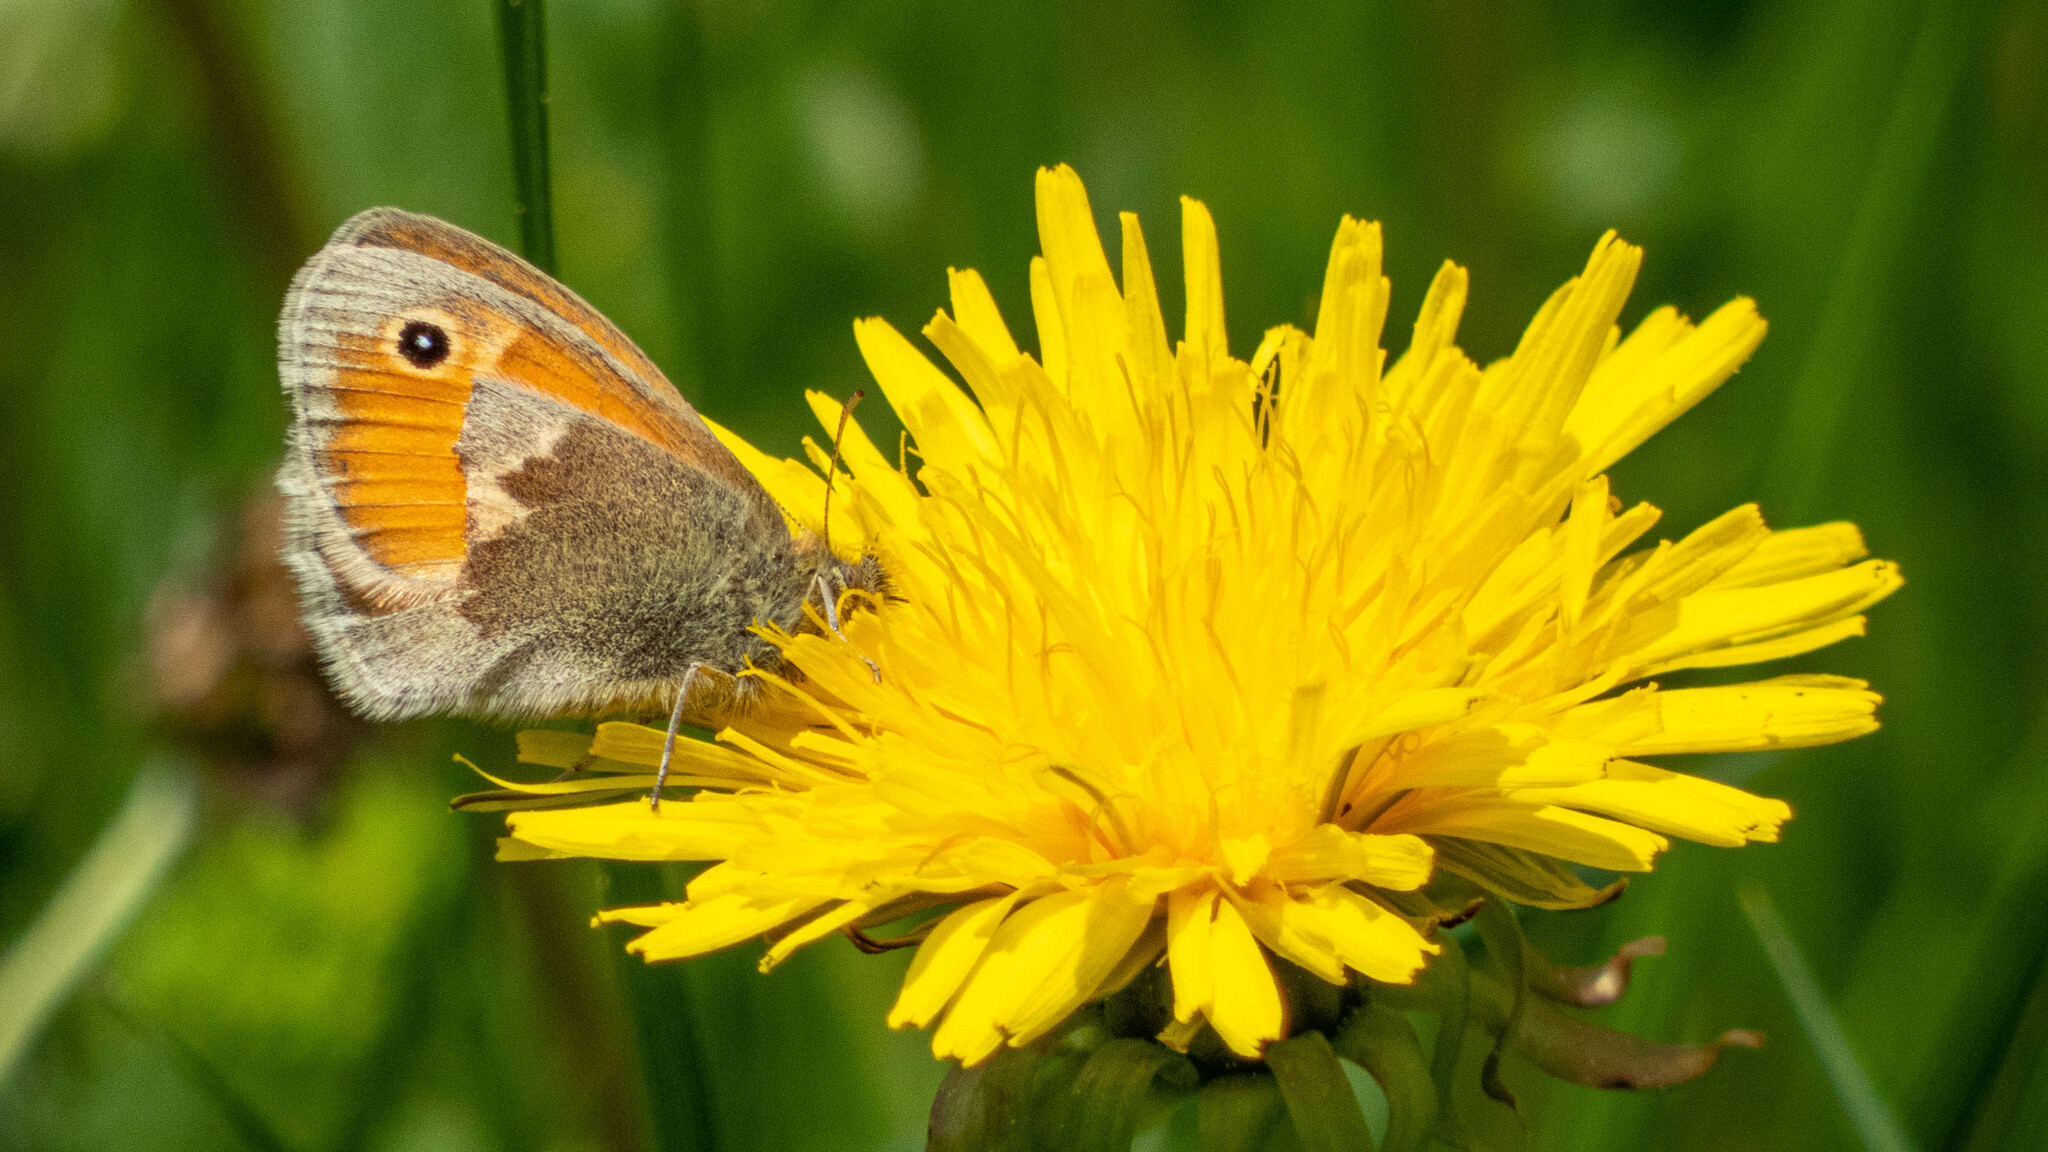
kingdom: Animalia
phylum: Arthropoda
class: Insecta
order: Lepidoptera
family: Nymphalidae
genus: Coenonympha
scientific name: Coenonympha pamphilus
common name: Small heath
